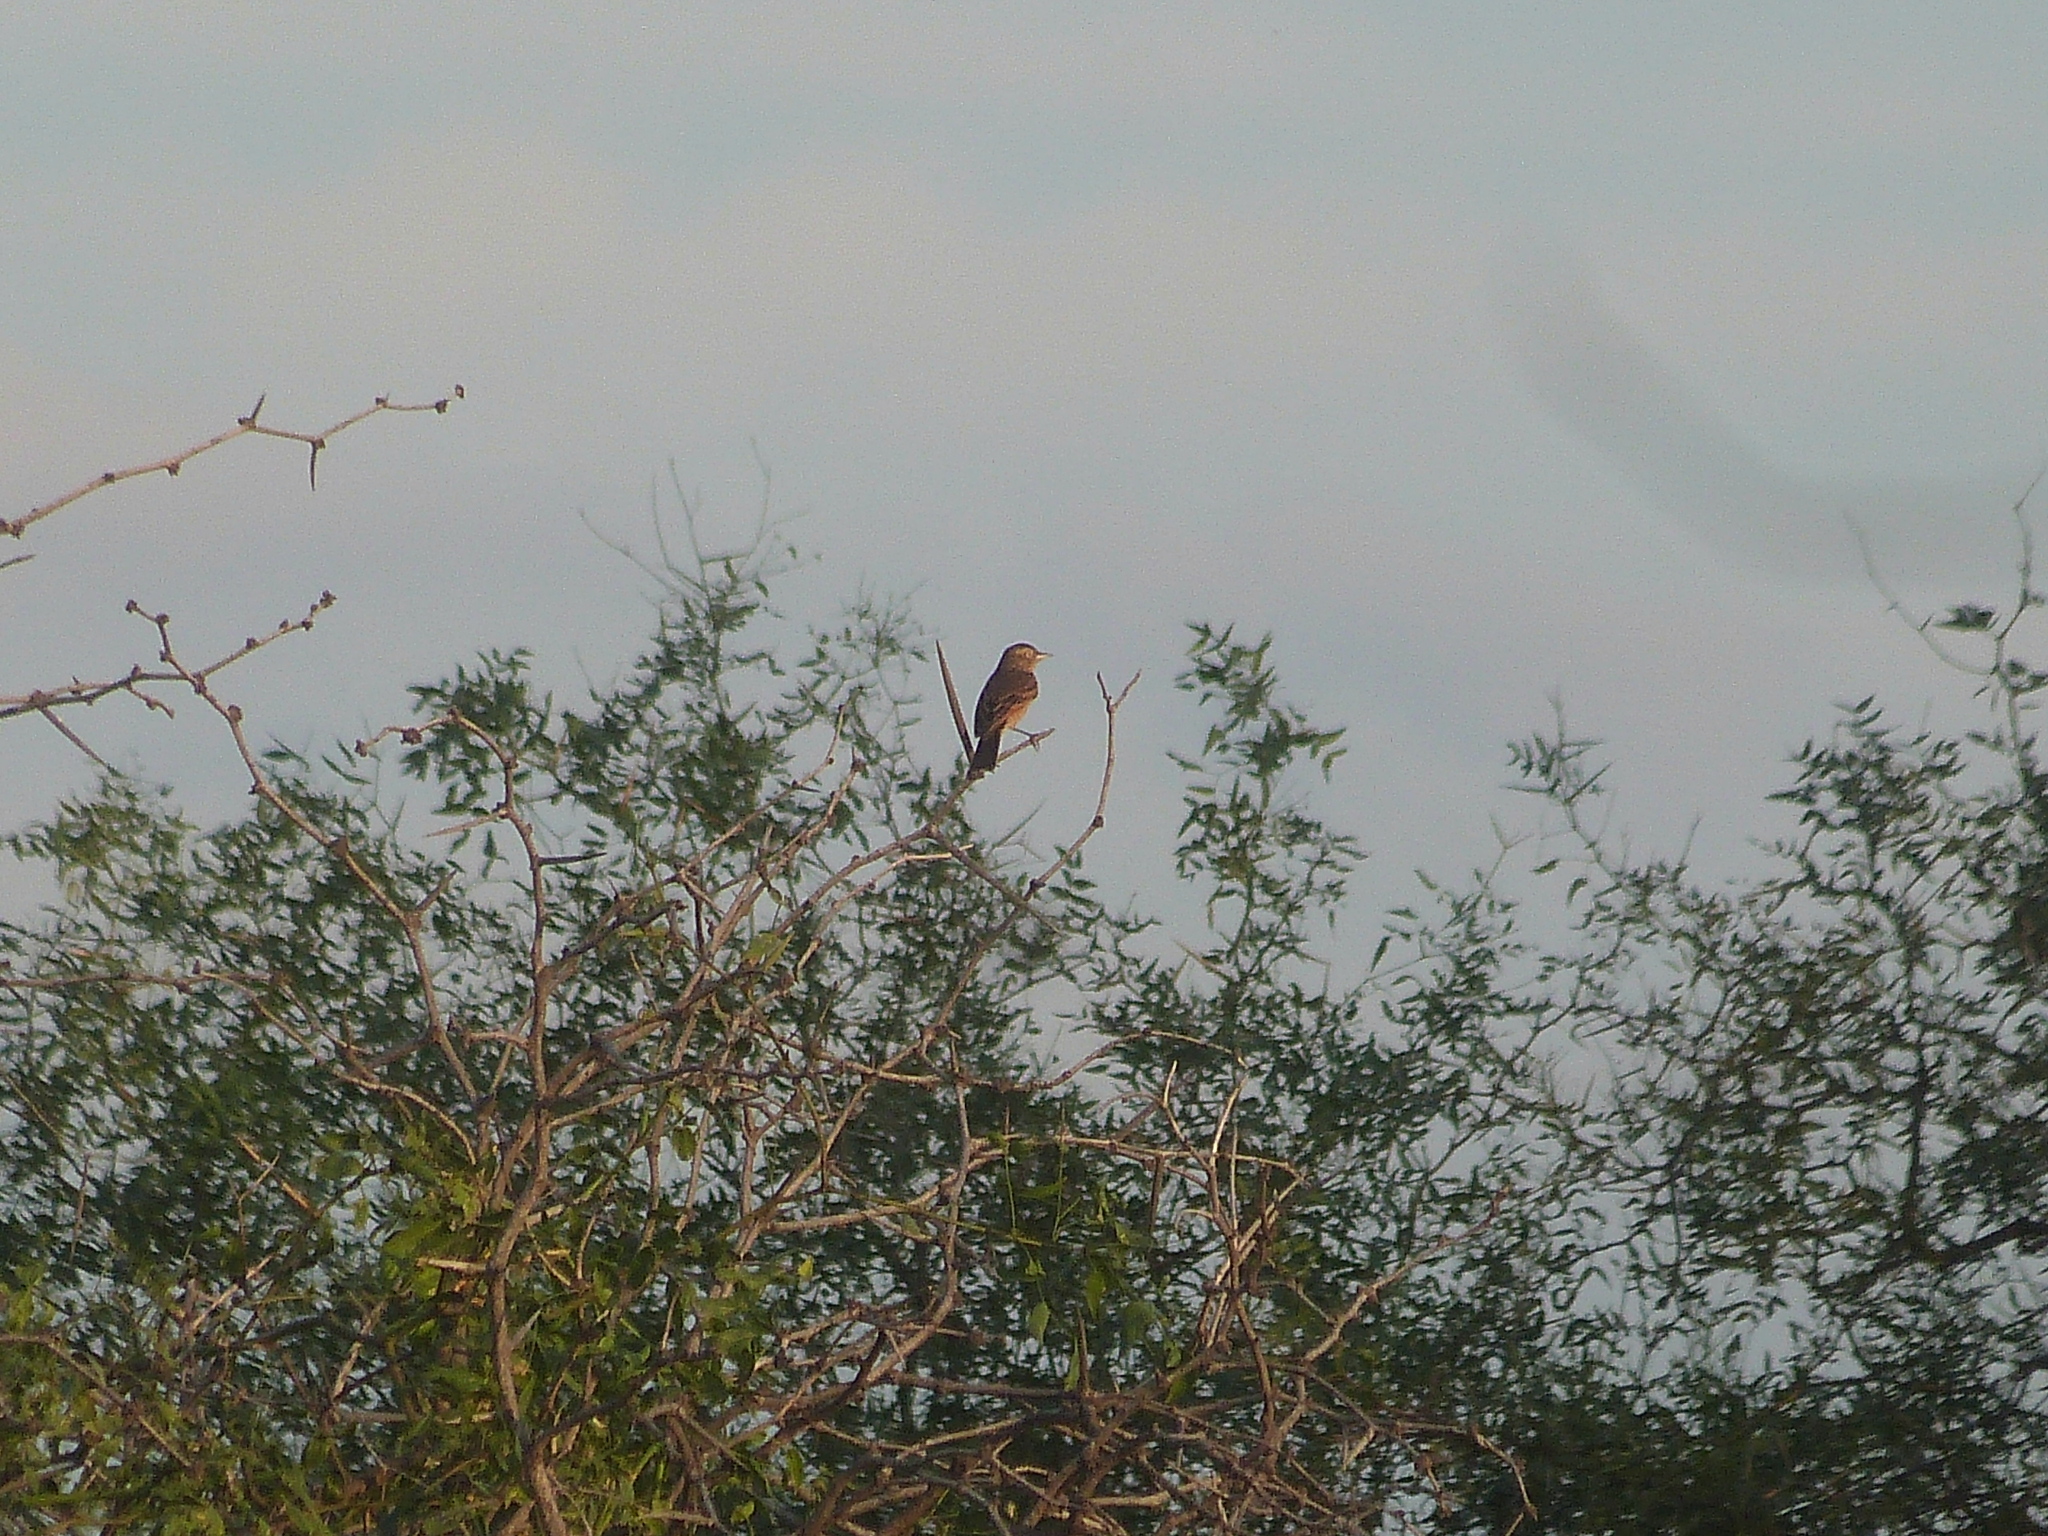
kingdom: Animalia
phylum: Chordata
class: Aves
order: Passeriformes
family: Tyrannidae
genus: Hymenops
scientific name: Hymenops perspicillatus
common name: Spectacled tyrant
